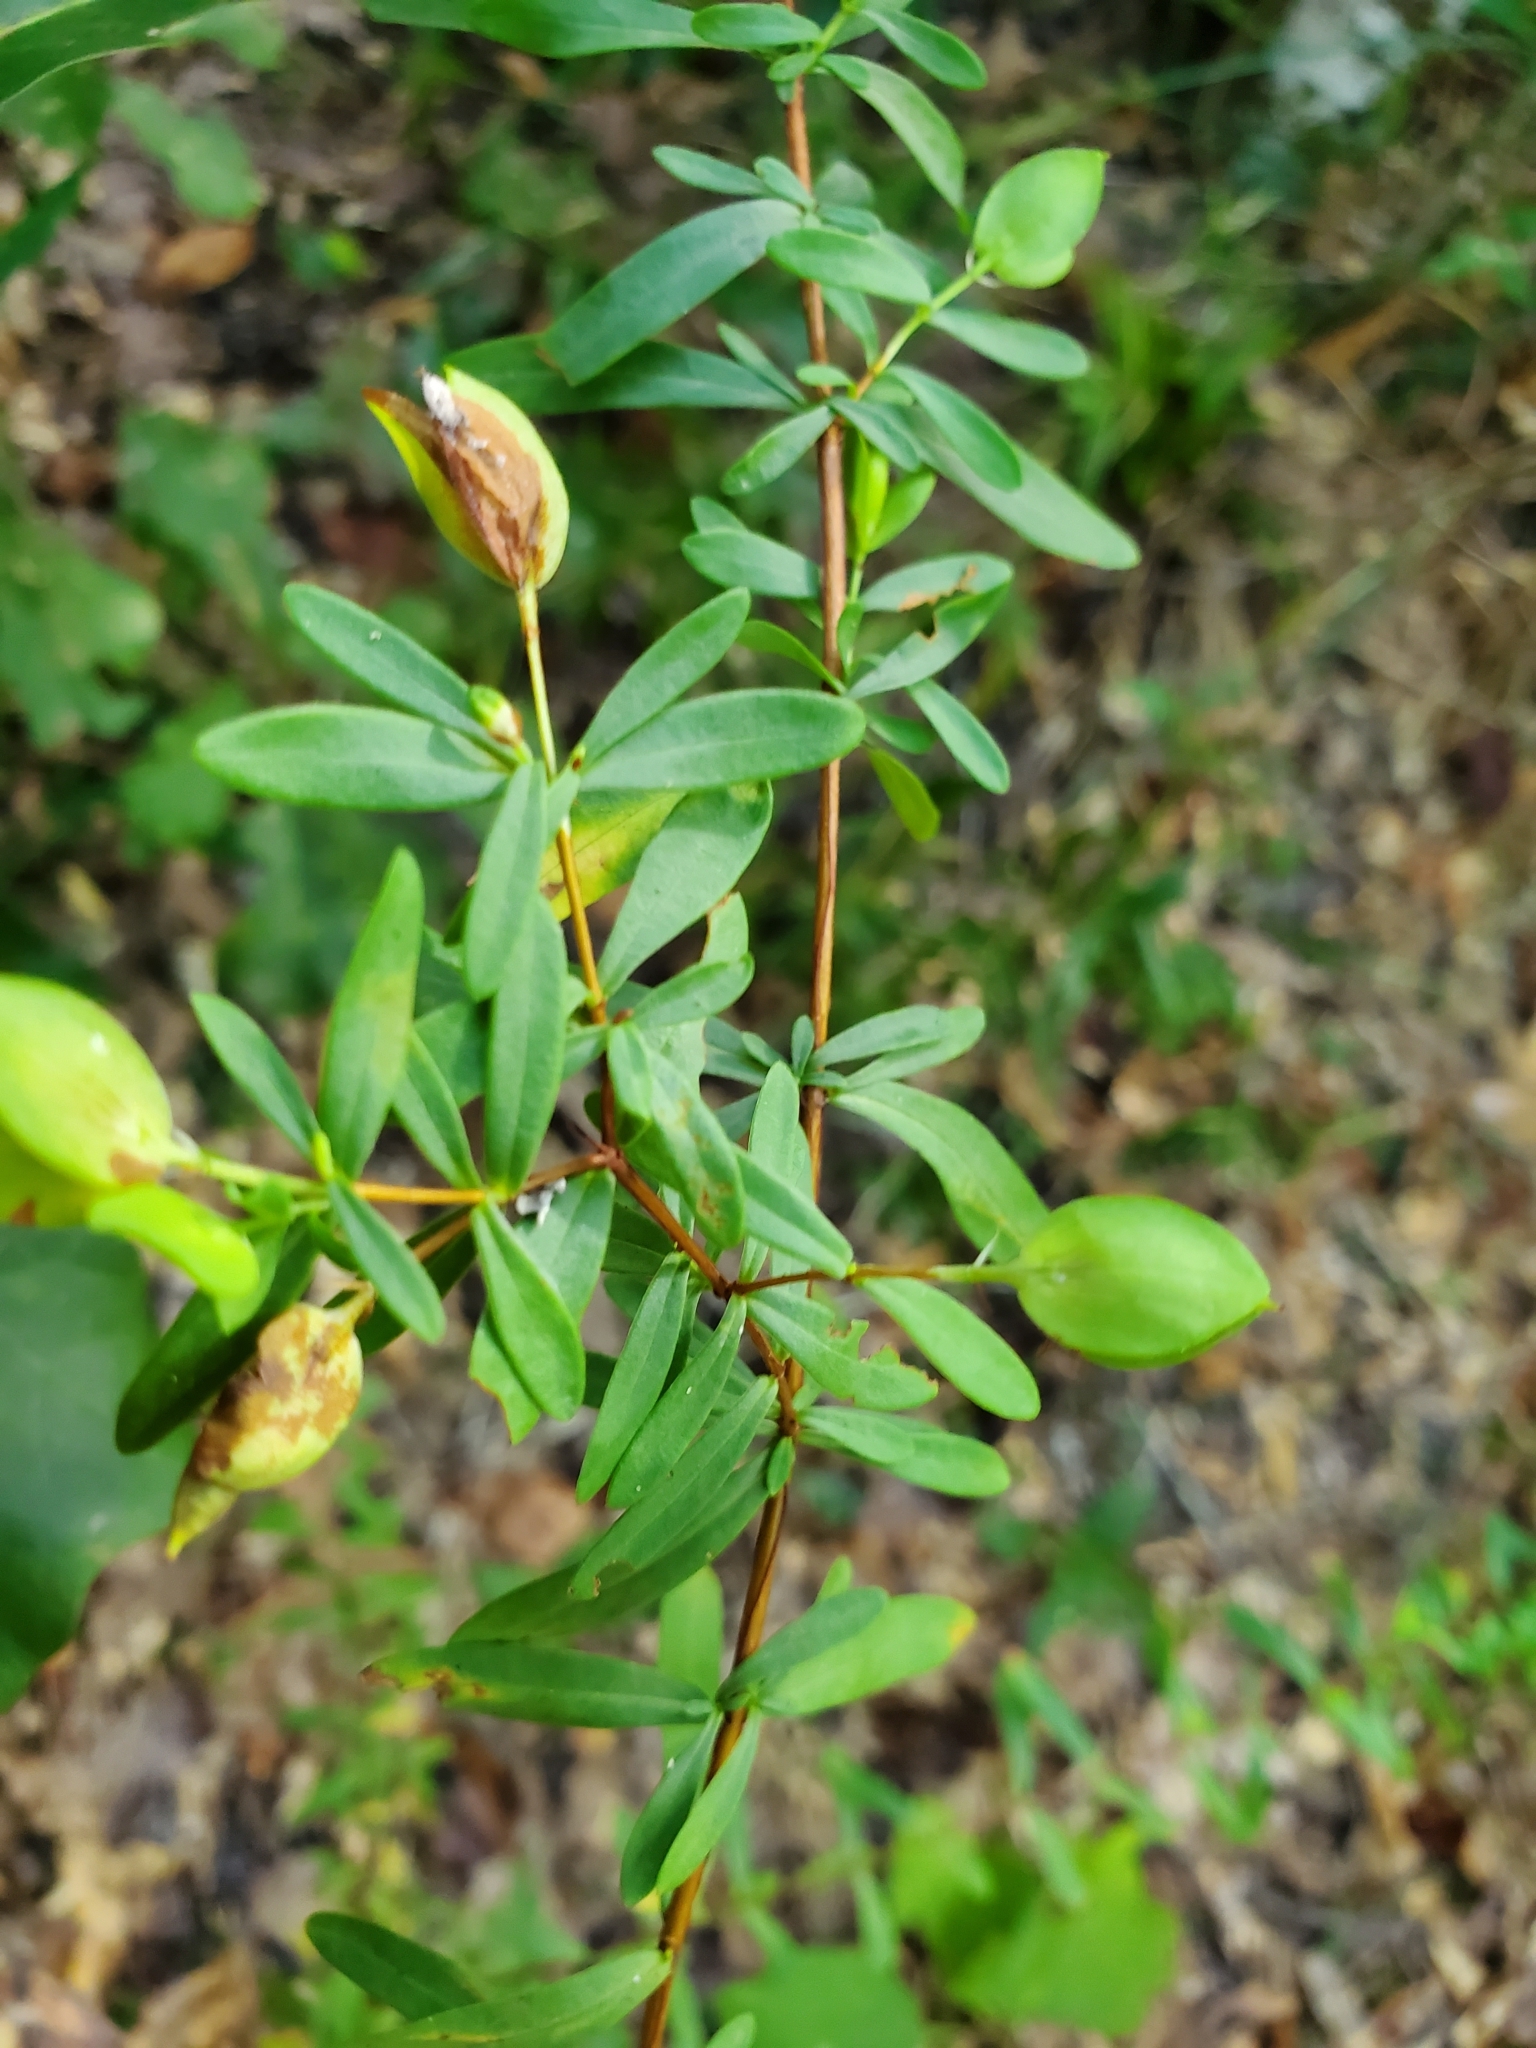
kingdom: Plantae
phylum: Tracheophyta
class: Magnoliopsida
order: Malpighiales
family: Hypericaceae
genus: Hypericum
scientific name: Hypericum hypericoides
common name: St. andrew's cross
